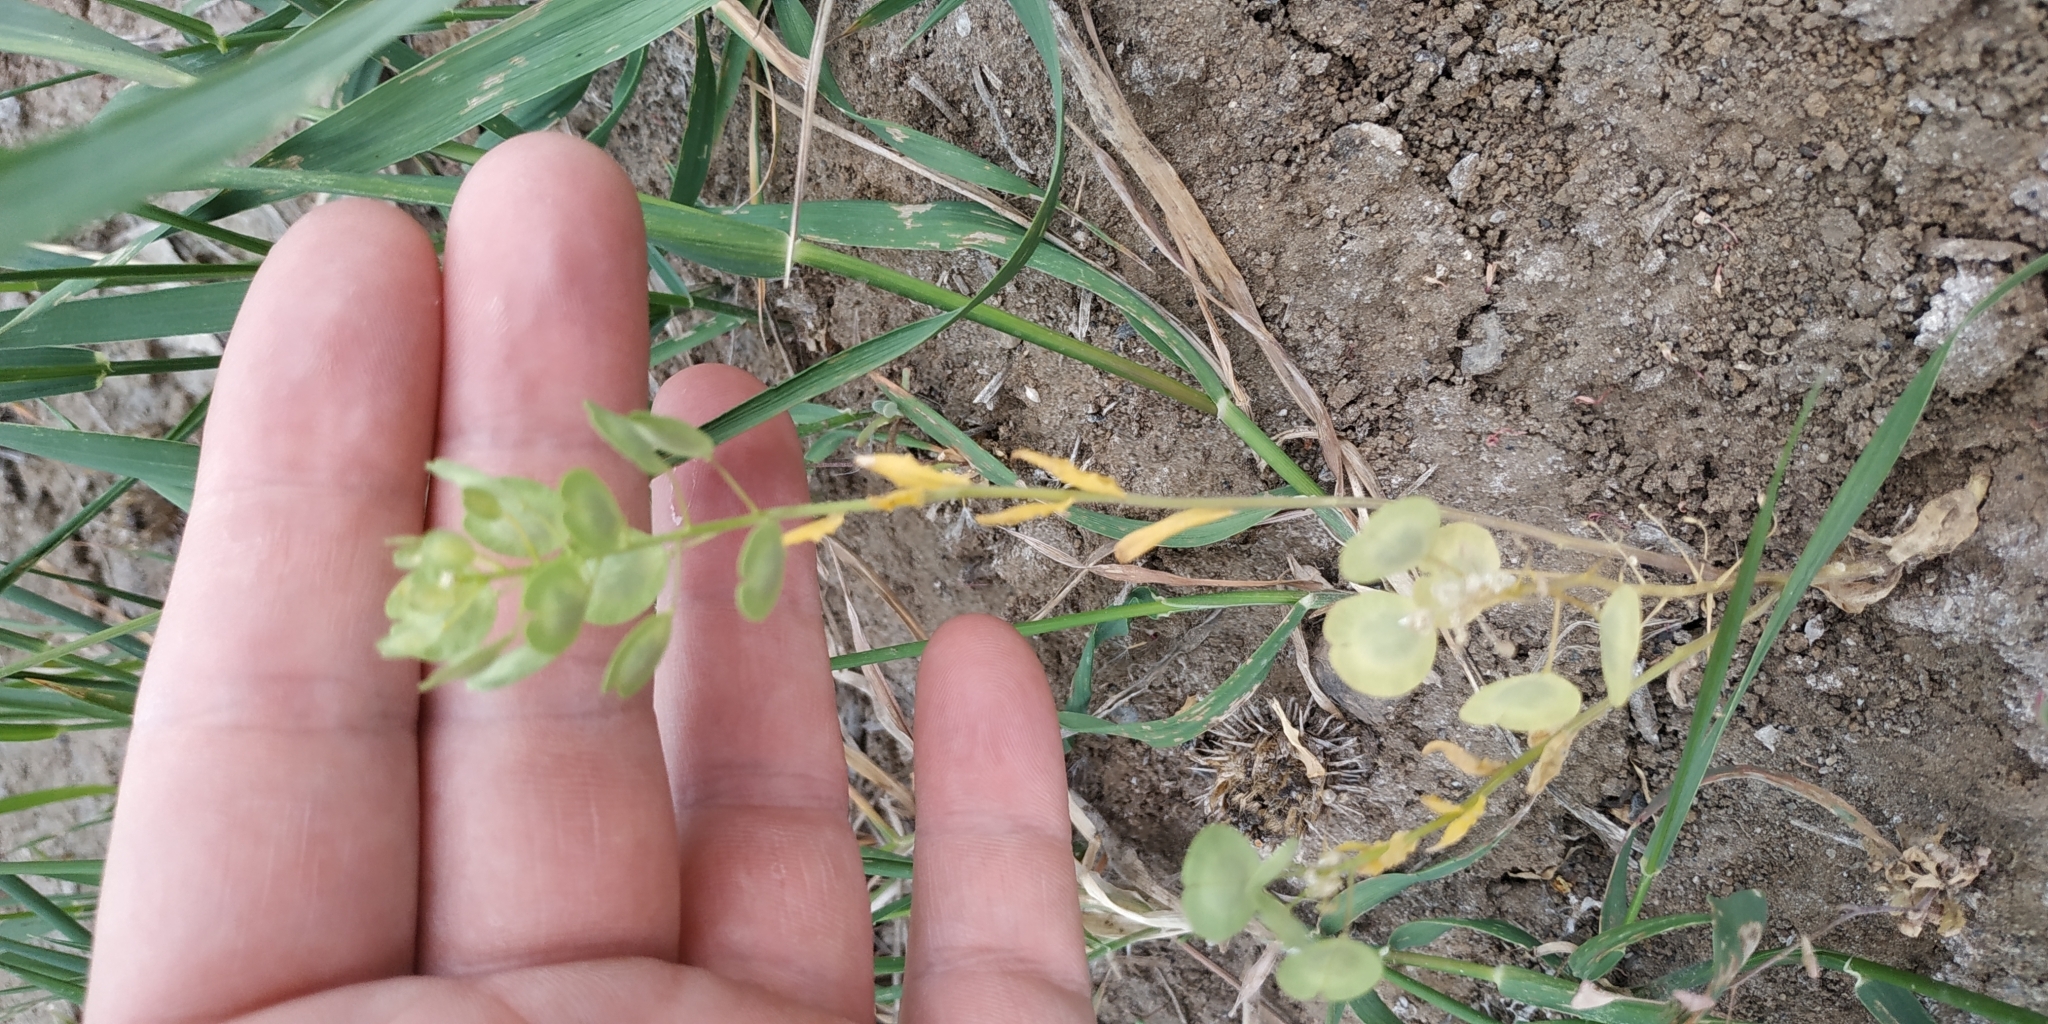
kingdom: Plantae
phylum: Tracheophyta
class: Magnoliopsida
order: Brassicales
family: Brassicaceae
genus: Thlaspi
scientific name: Thlaspi arvense
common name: Field pennycress
